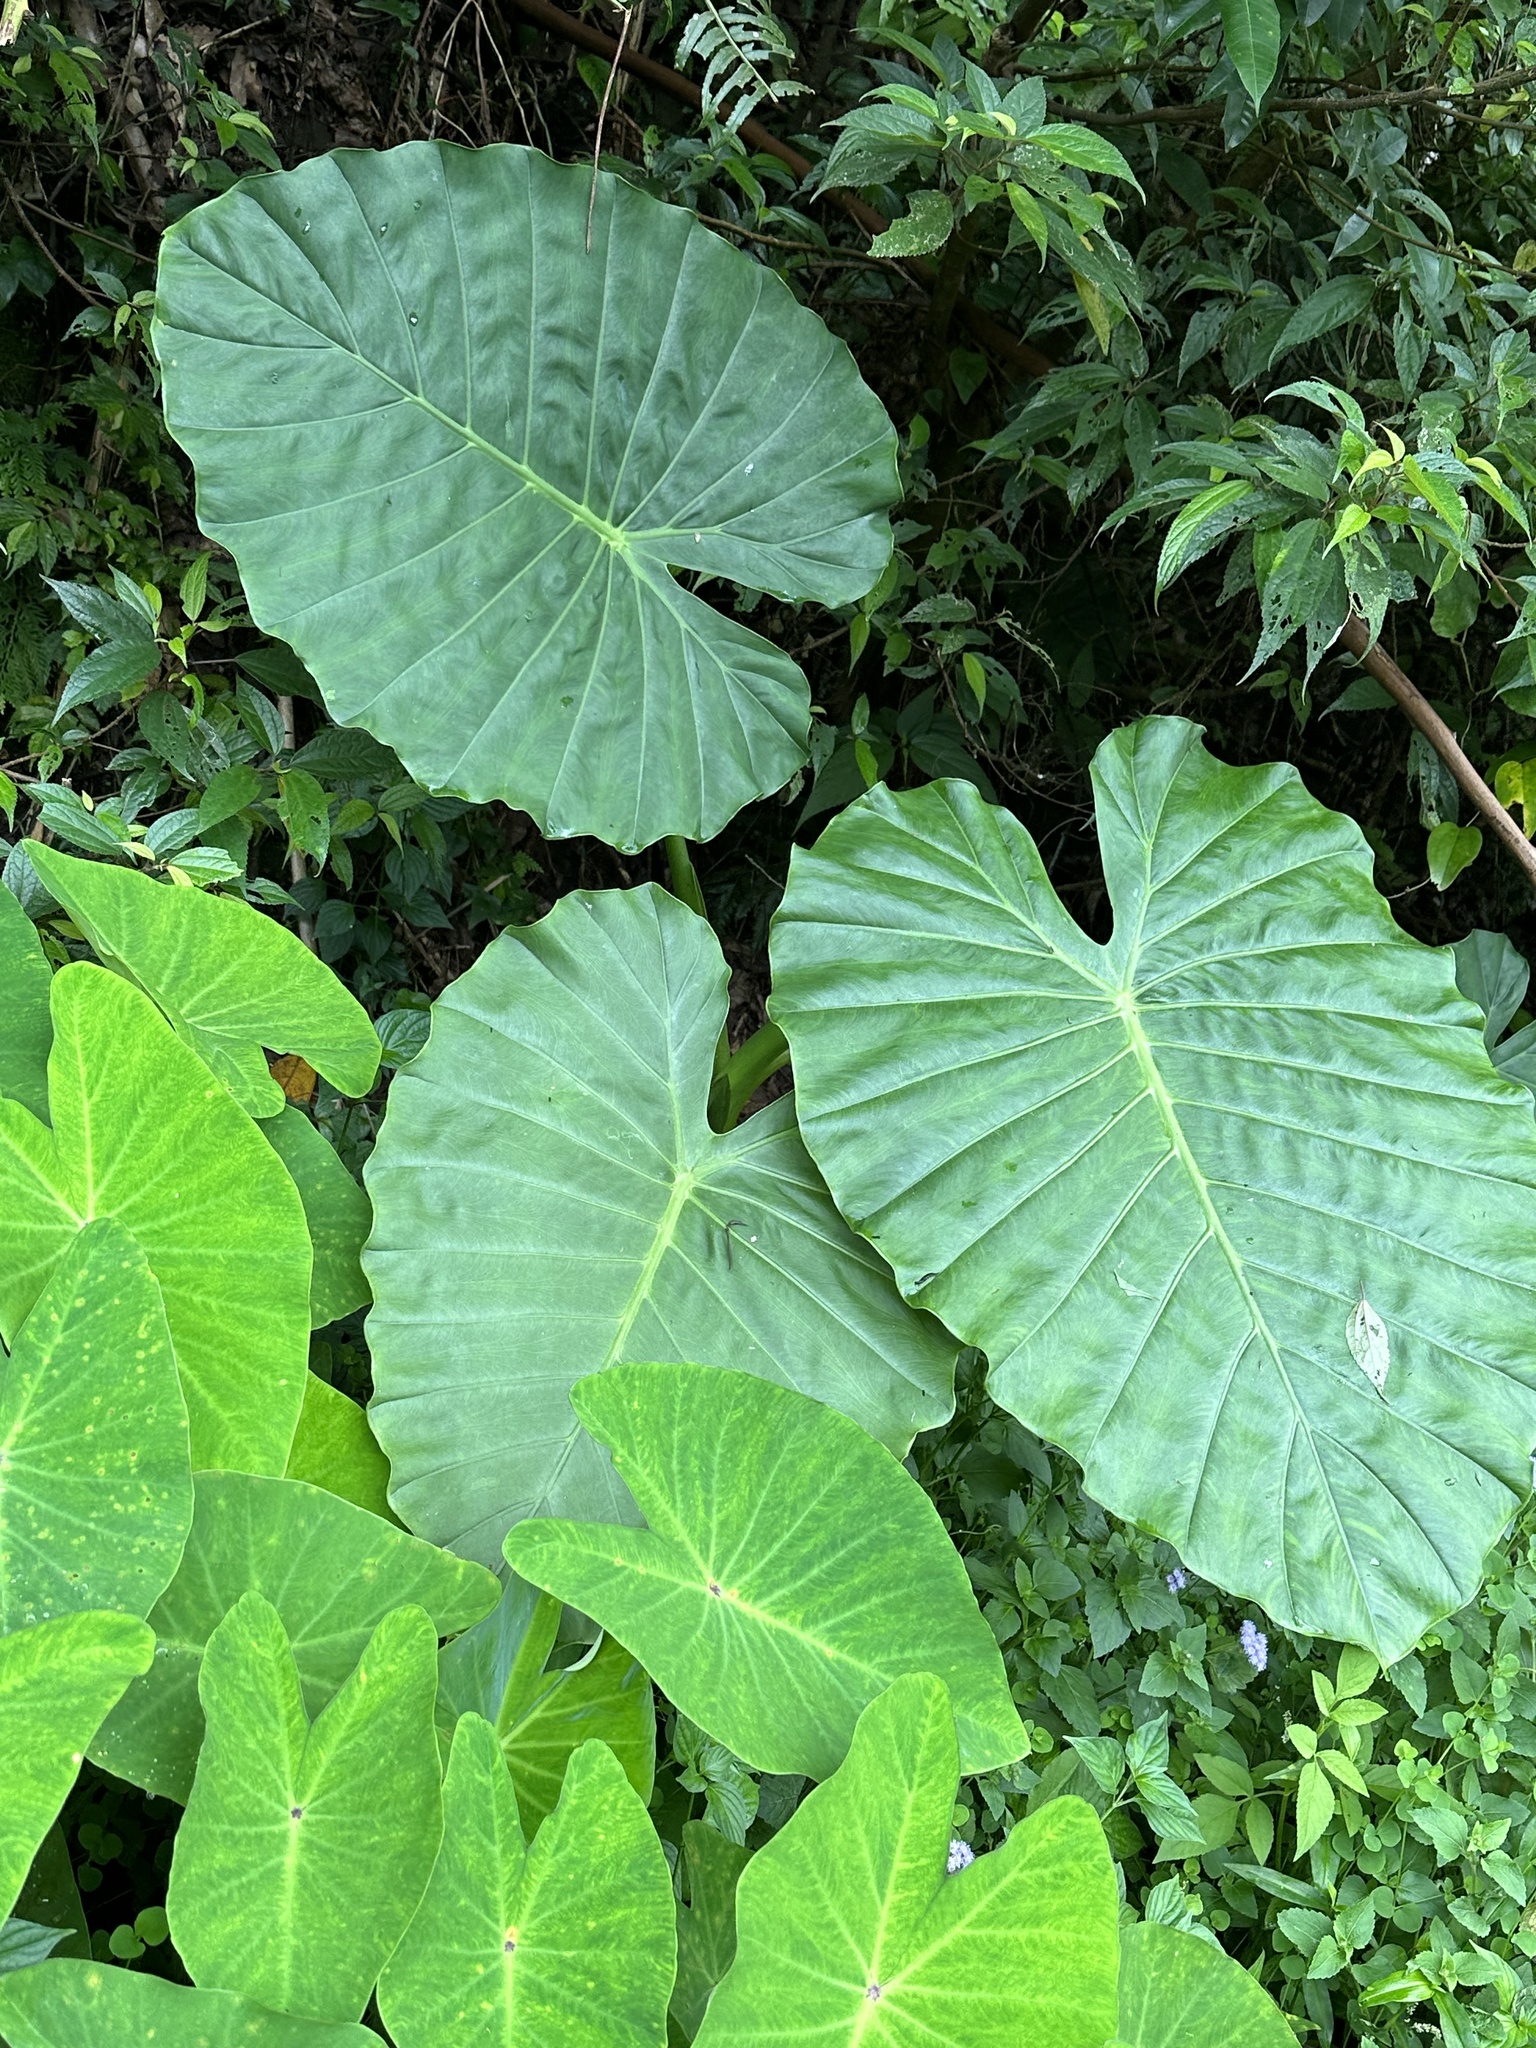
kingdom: Plantae
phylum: Tracheophyta
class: Liliopsida
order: Alismatales
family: Araceae
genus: Alocasia
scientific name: Alocasia odora
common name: Asian taro
